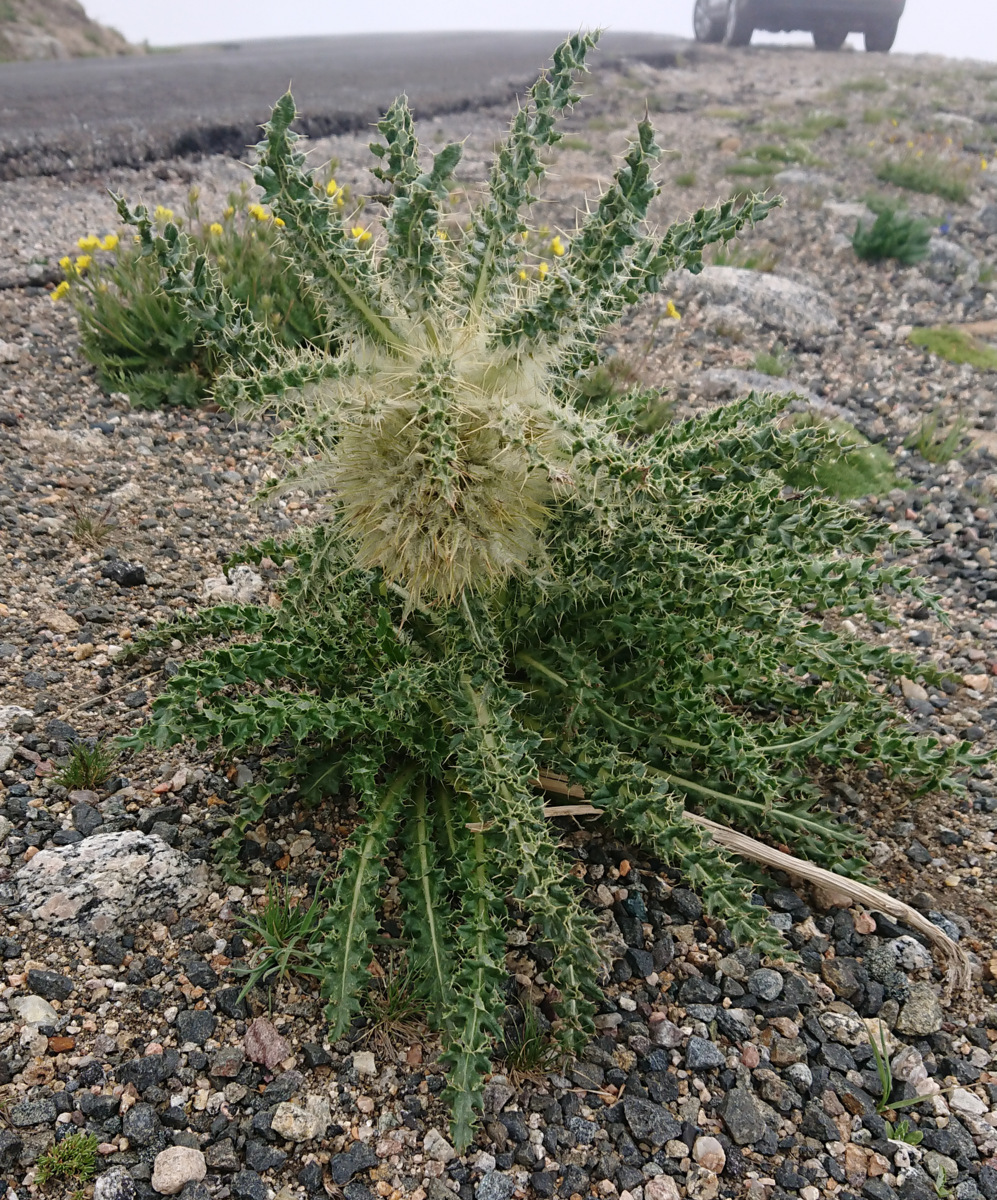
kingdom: Plantae
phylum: Tracheophyta
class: Magnoliopsida
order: Asterales
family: Asteraceae
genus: Cirsium
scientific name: Cirsium scopulorum
